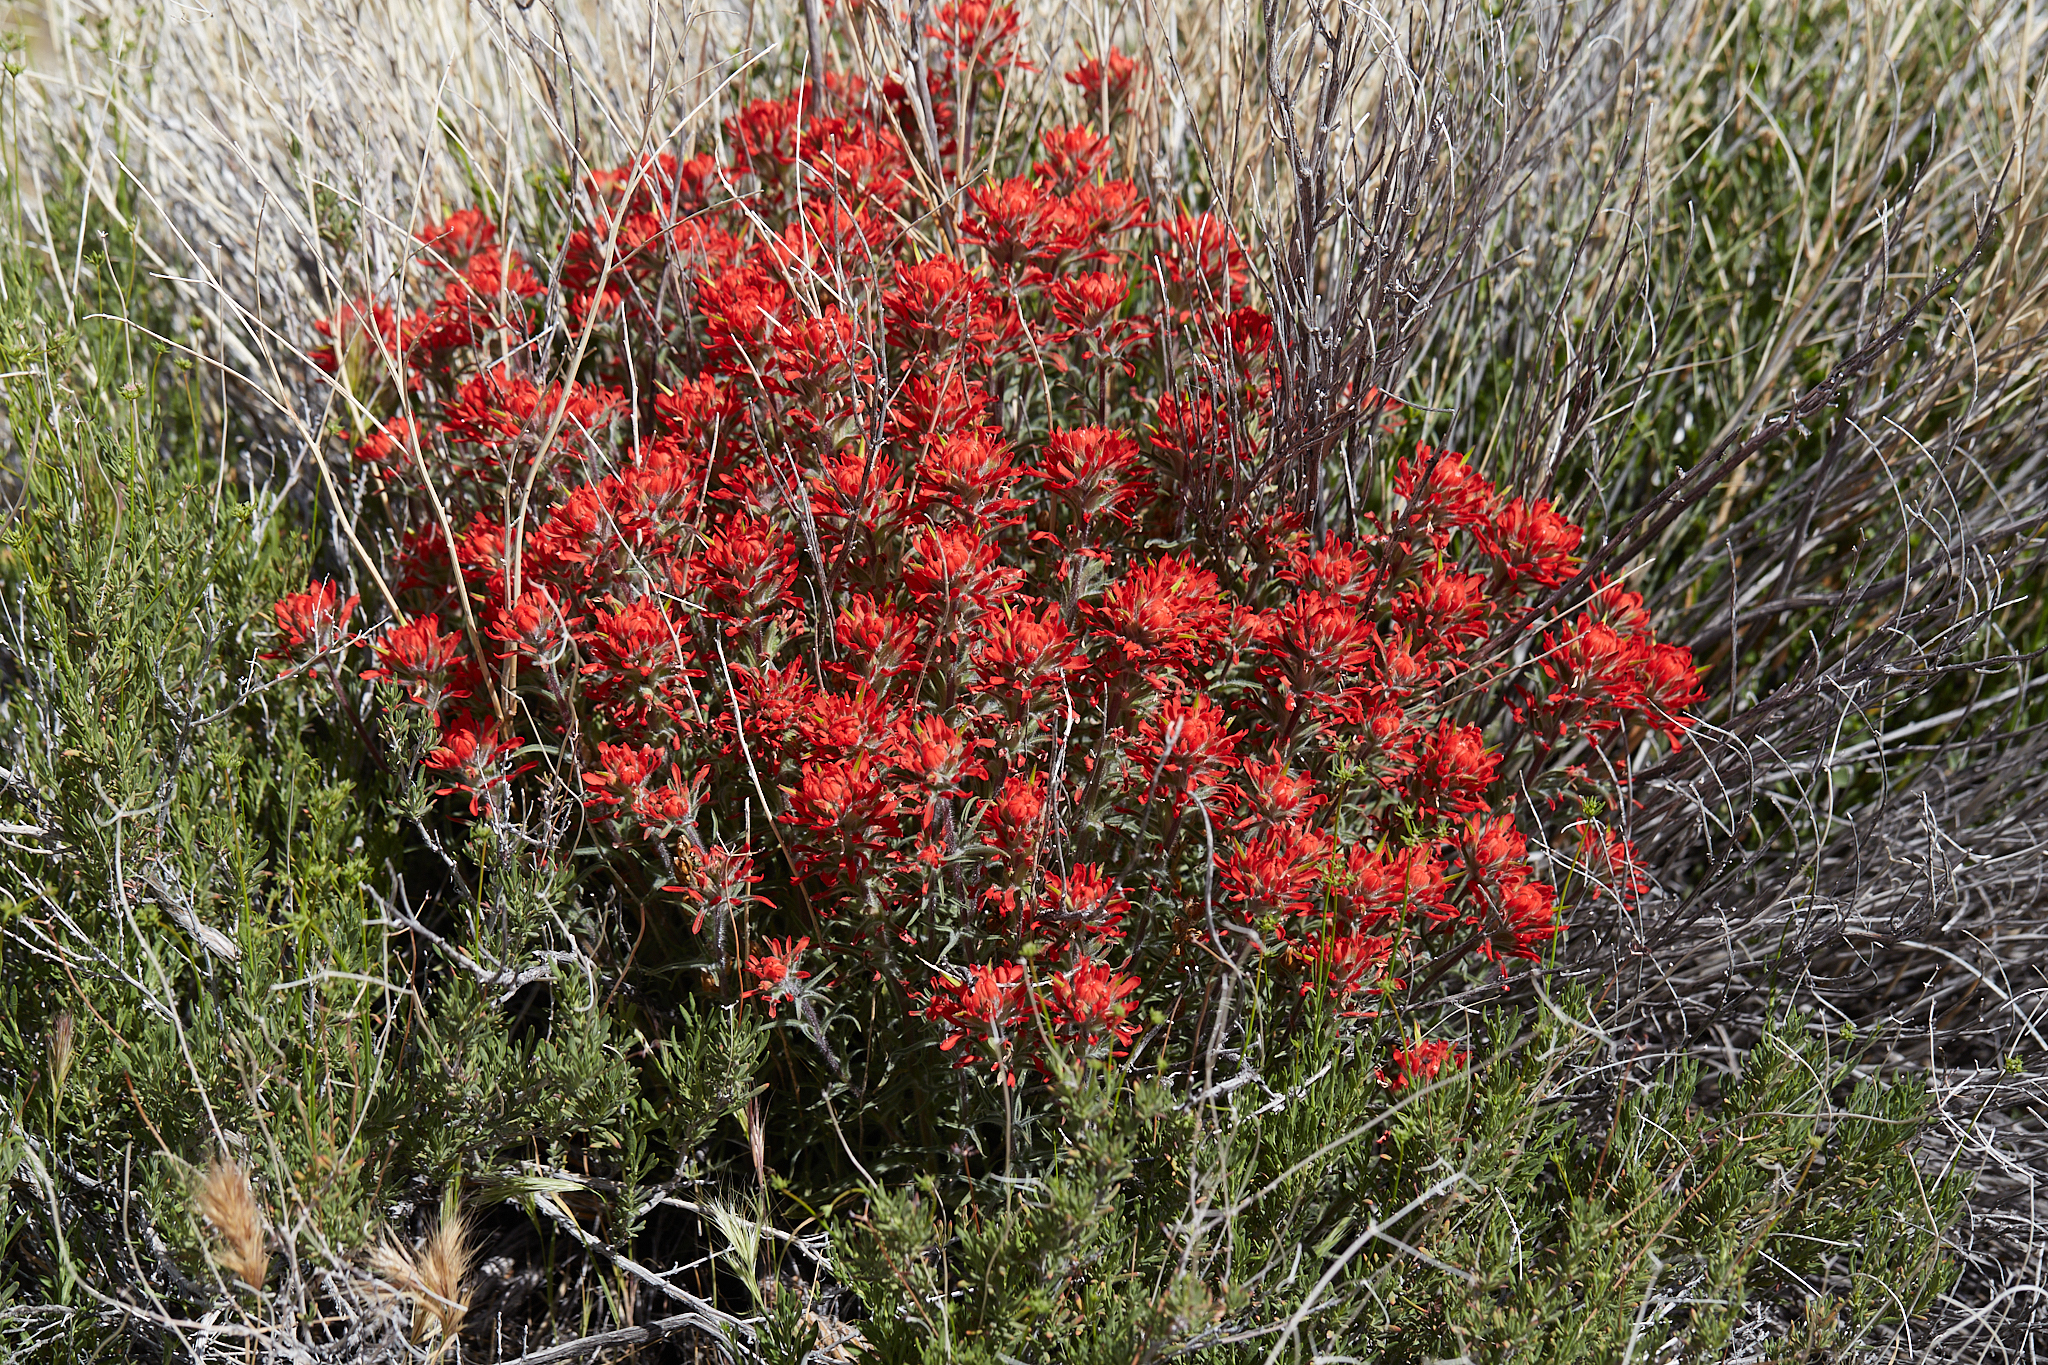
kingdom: Plantae
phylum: Tracheophyta
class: Magnoliopsida
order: Lamiales
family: Orobanchaceae
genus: Castilleja
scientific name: Castilleja chromosa
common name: Desert paintbrush
